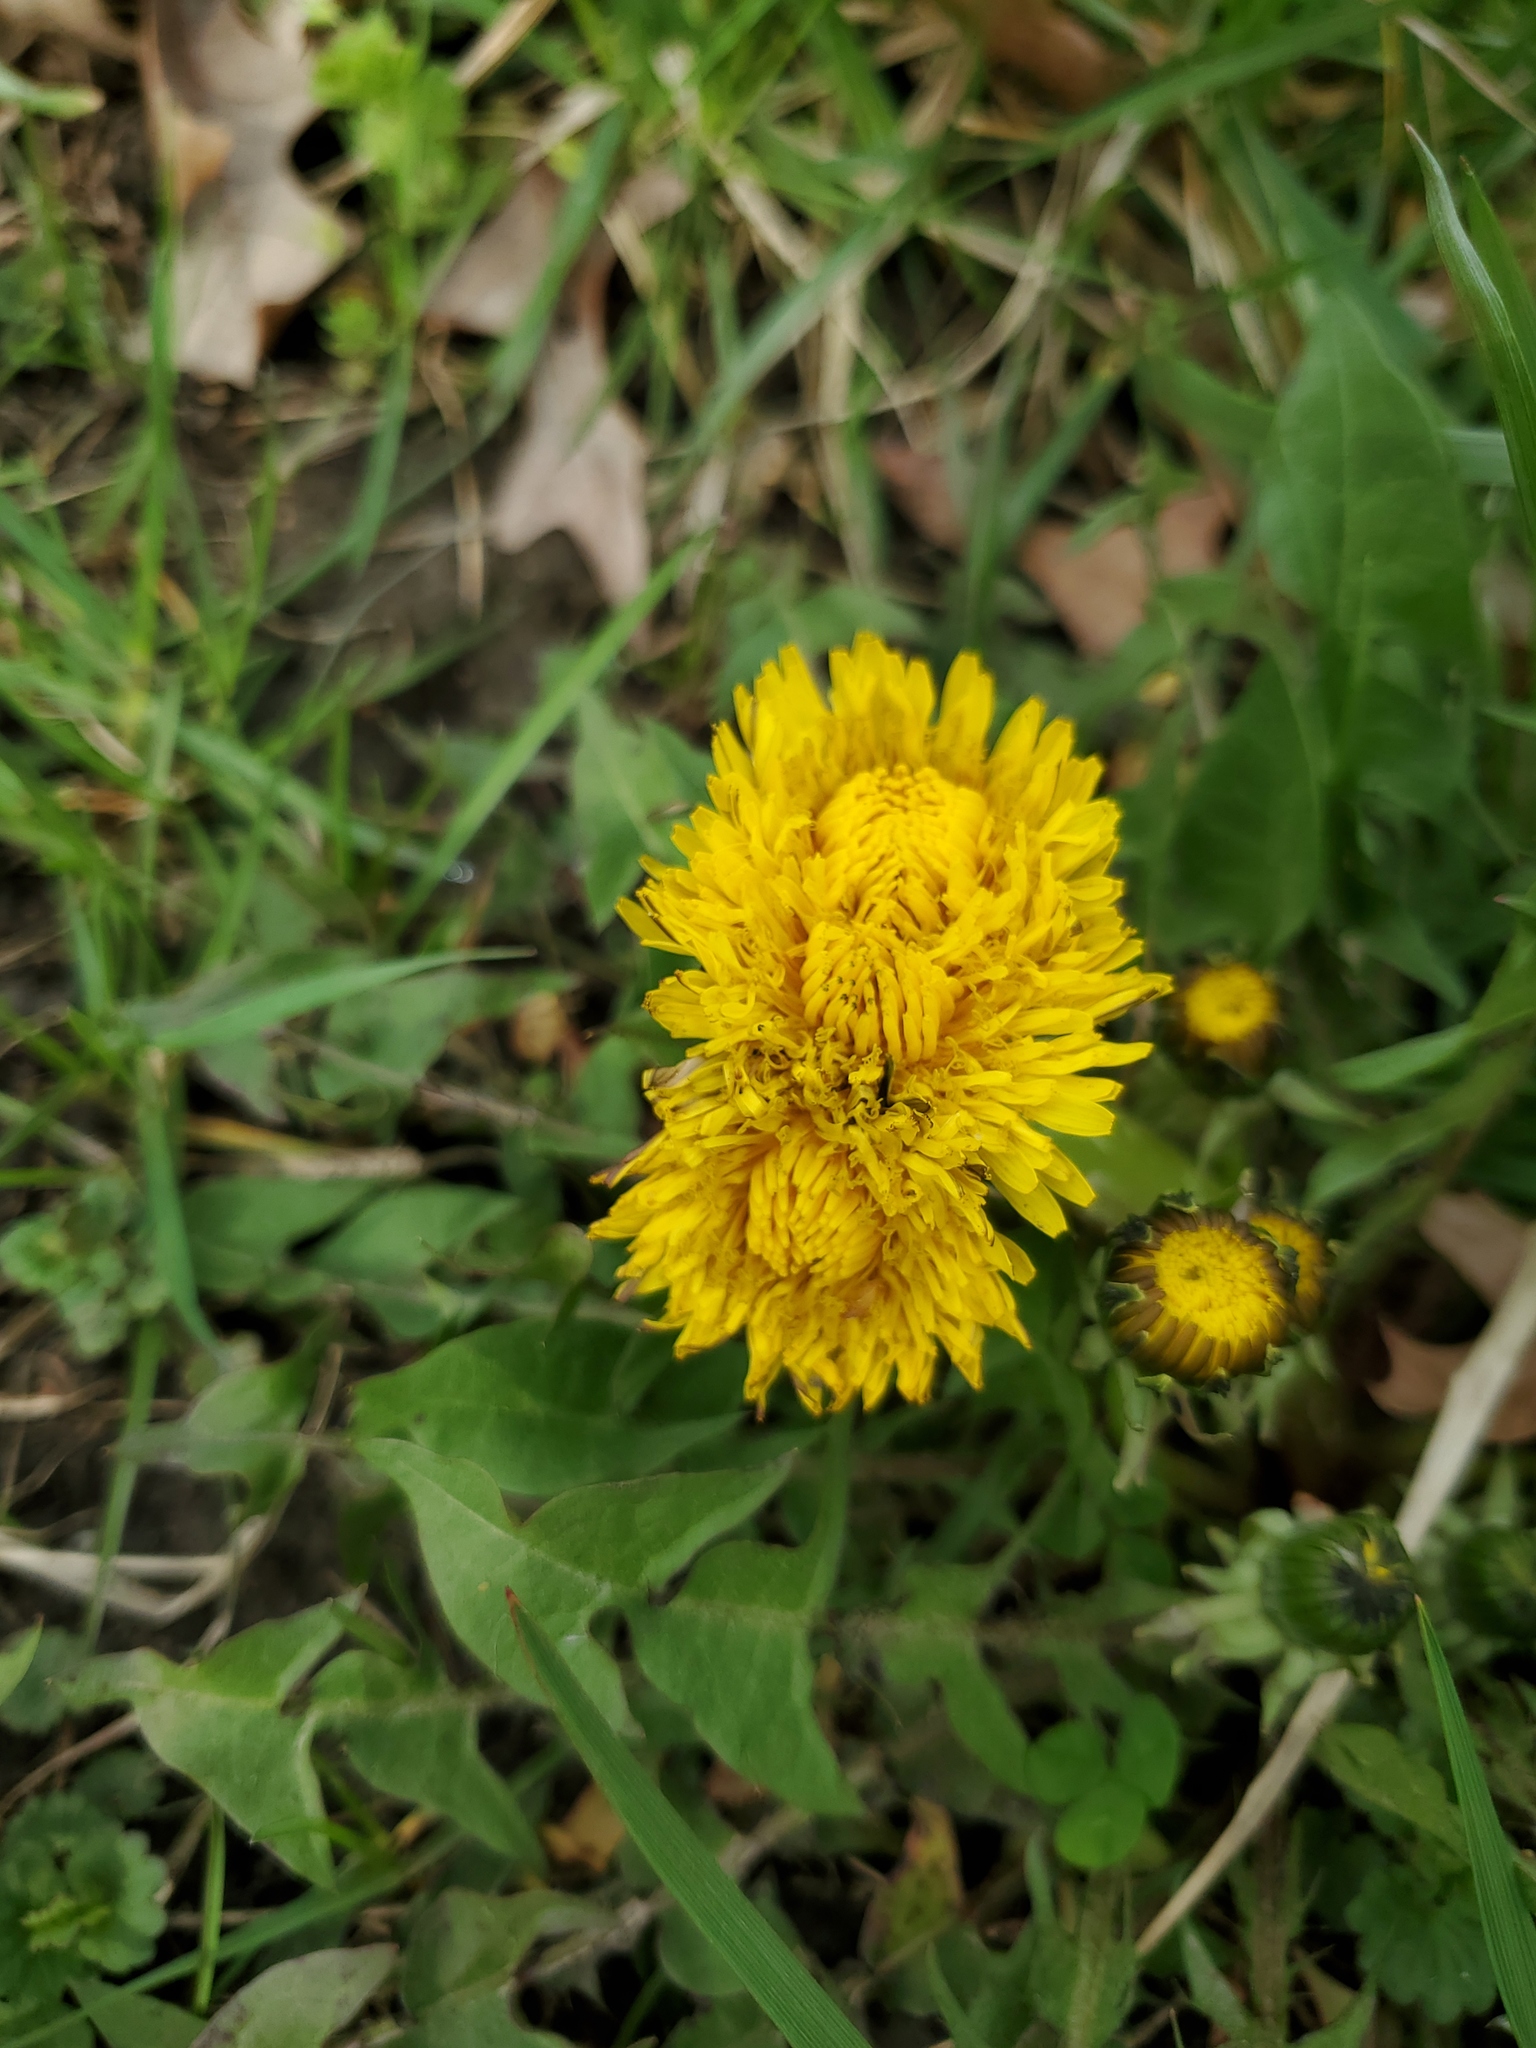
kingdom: Plantae
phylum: Tracheophyta
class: Magnoliopsida
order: Asterales
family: Asteraceae
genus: Taraxacum
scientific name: Taraxacum officinale
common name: Common dandelion
